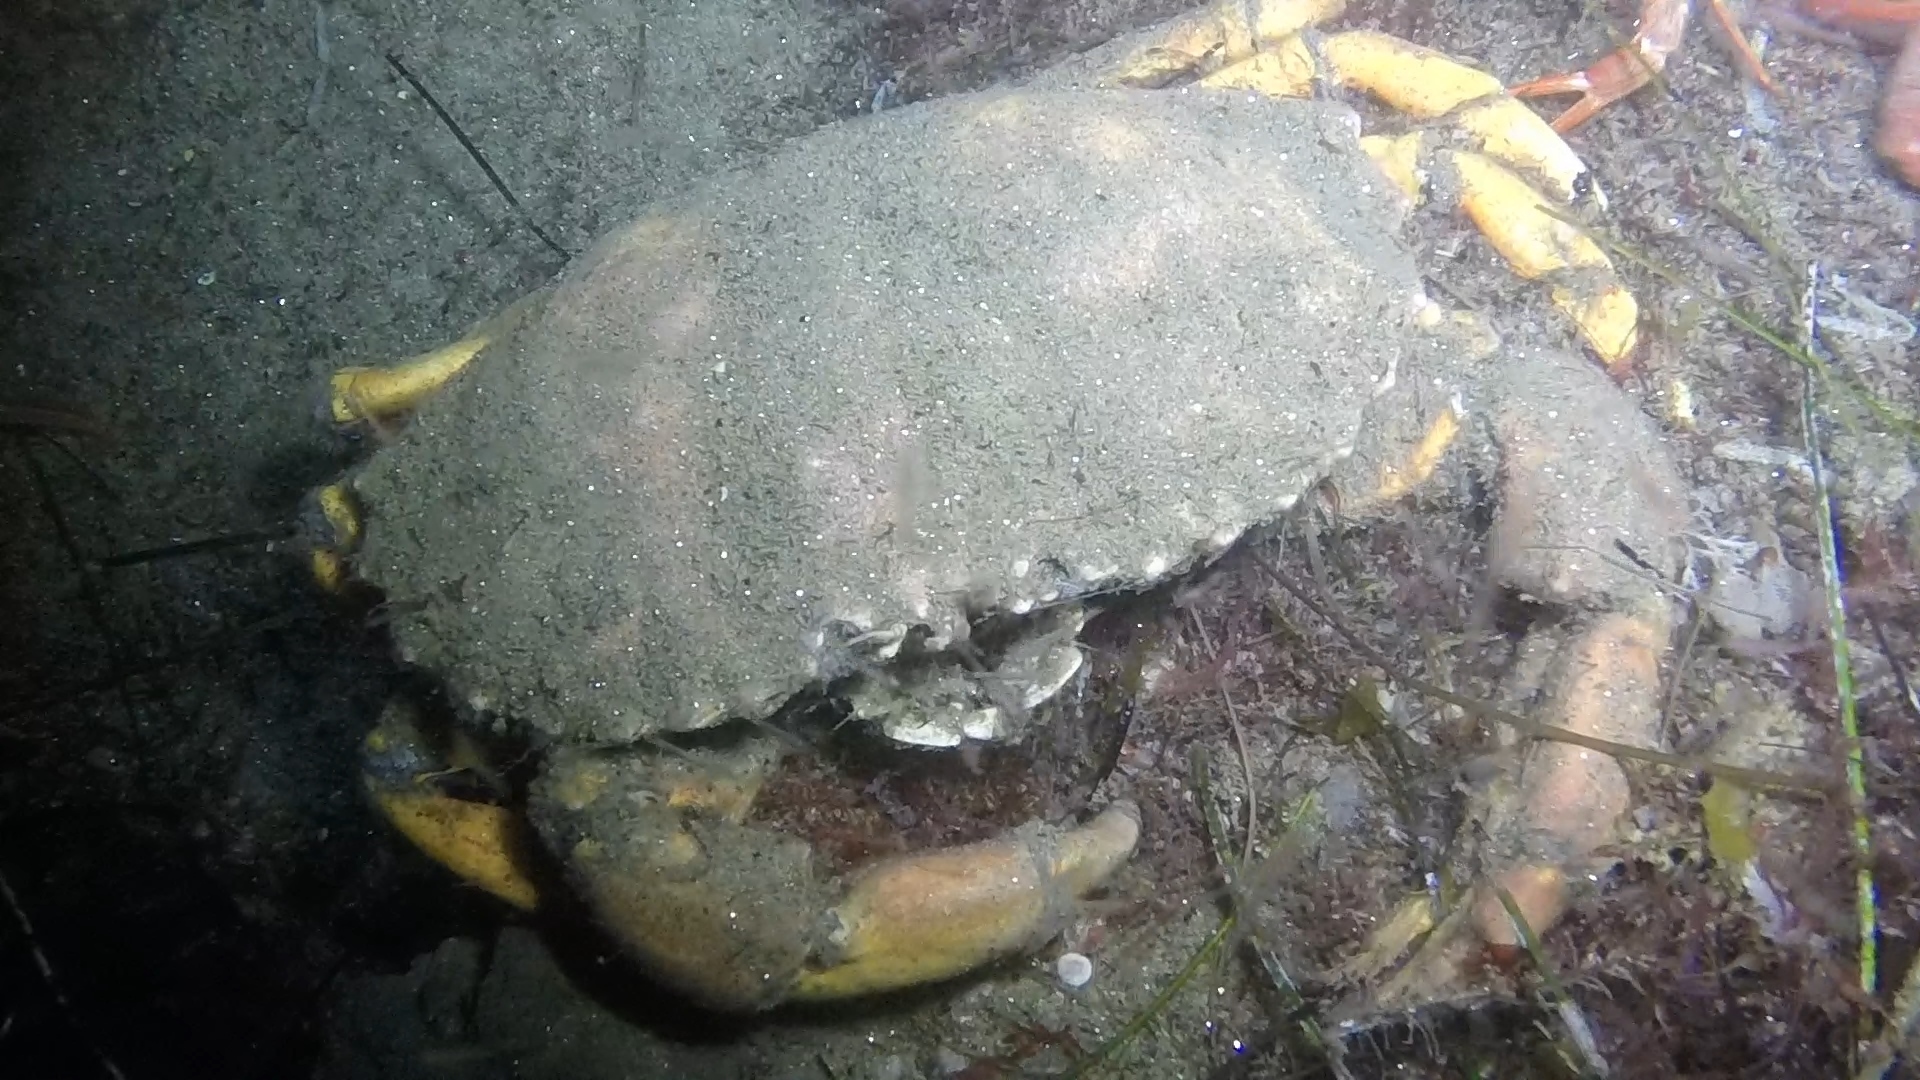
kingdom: Animalia
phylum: Arthropoda
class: Malacostraca
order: Decapoda
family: Cancridae
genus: Metacarcinus
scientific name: Metacarcinus anthonyi
